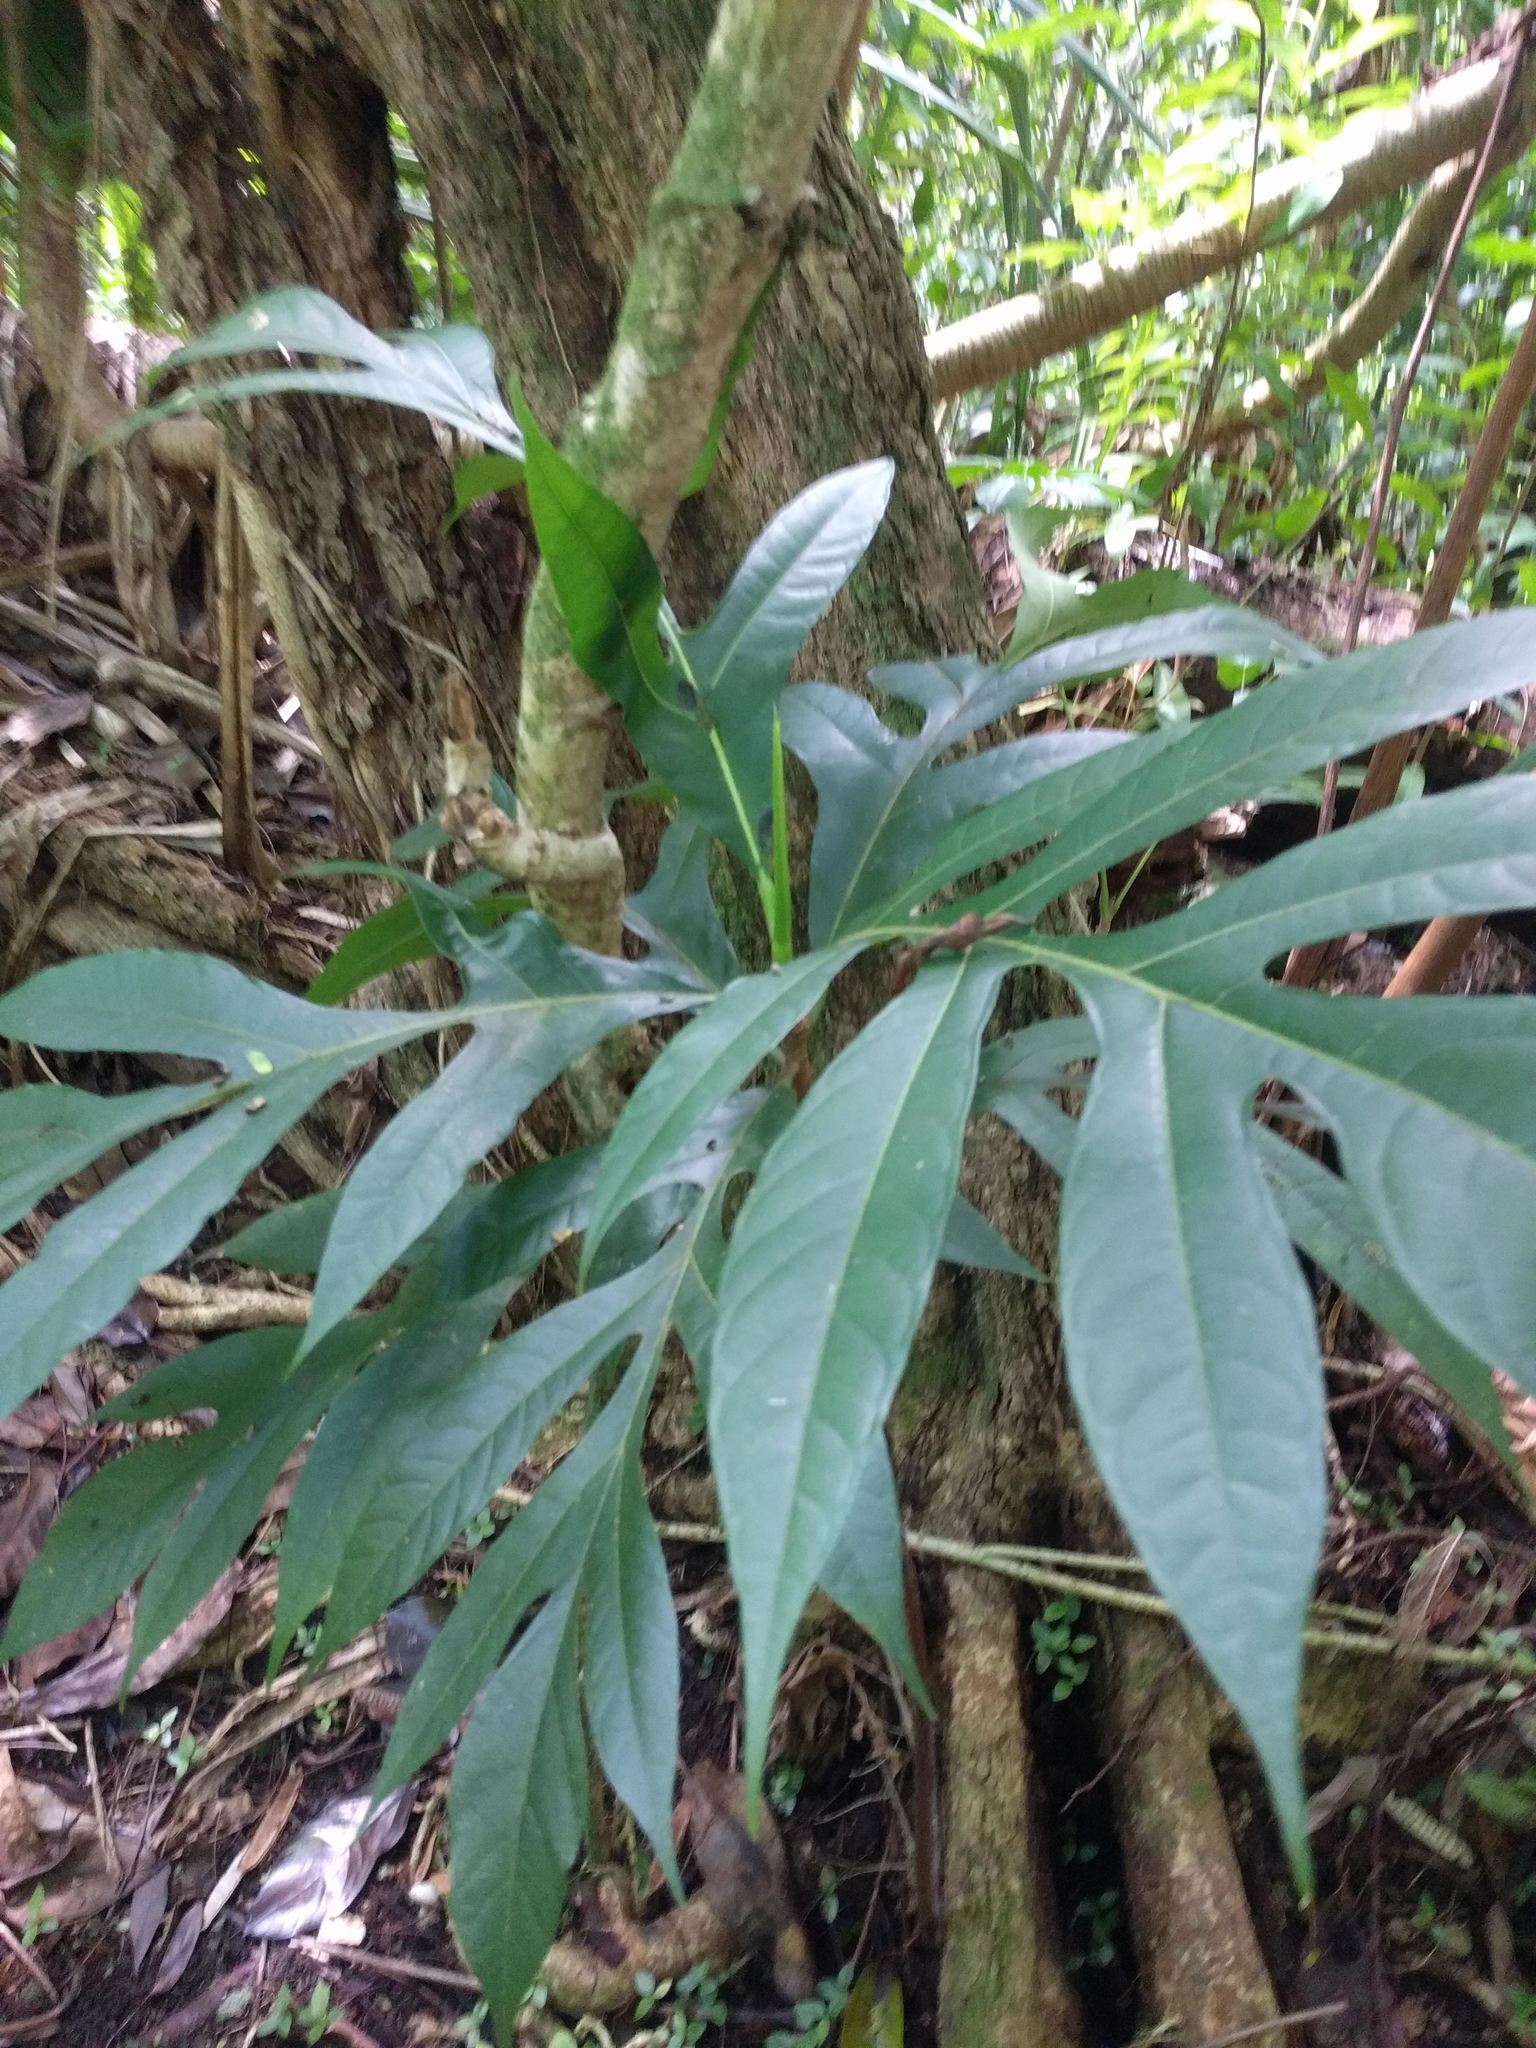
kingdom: Plantae
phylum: Tracheophyta
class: Magnoliopsida
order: Rosales
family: Moraceae
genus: Artocarpus
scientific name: Artocarpus altilis
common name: Breadfruit
